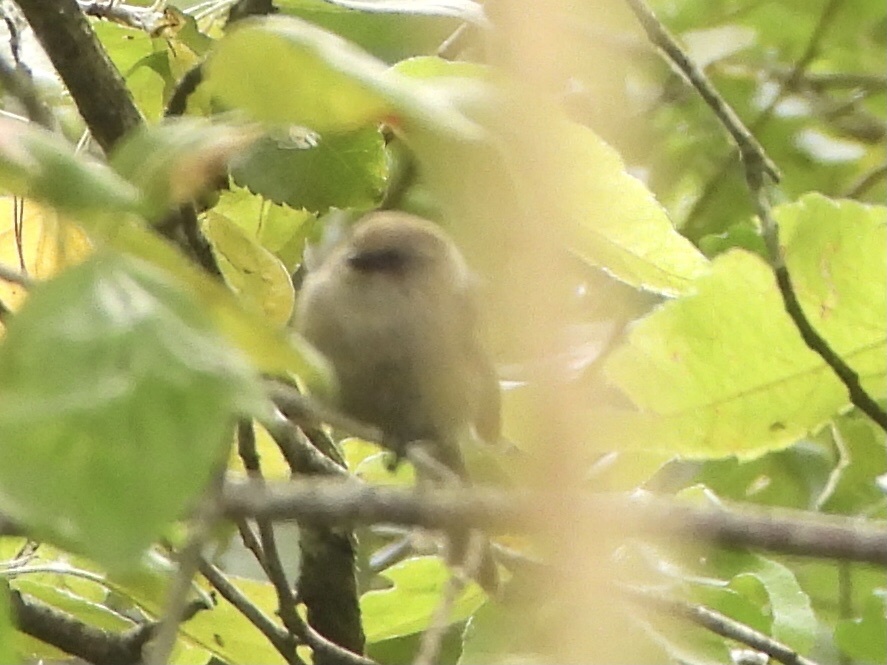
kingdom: Animalia
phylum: Chordata
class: Aves
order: Passeriformes
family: Aegithalidae
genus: Psaltriparus
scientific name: Psaltriparus minimus
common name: American bushtit
